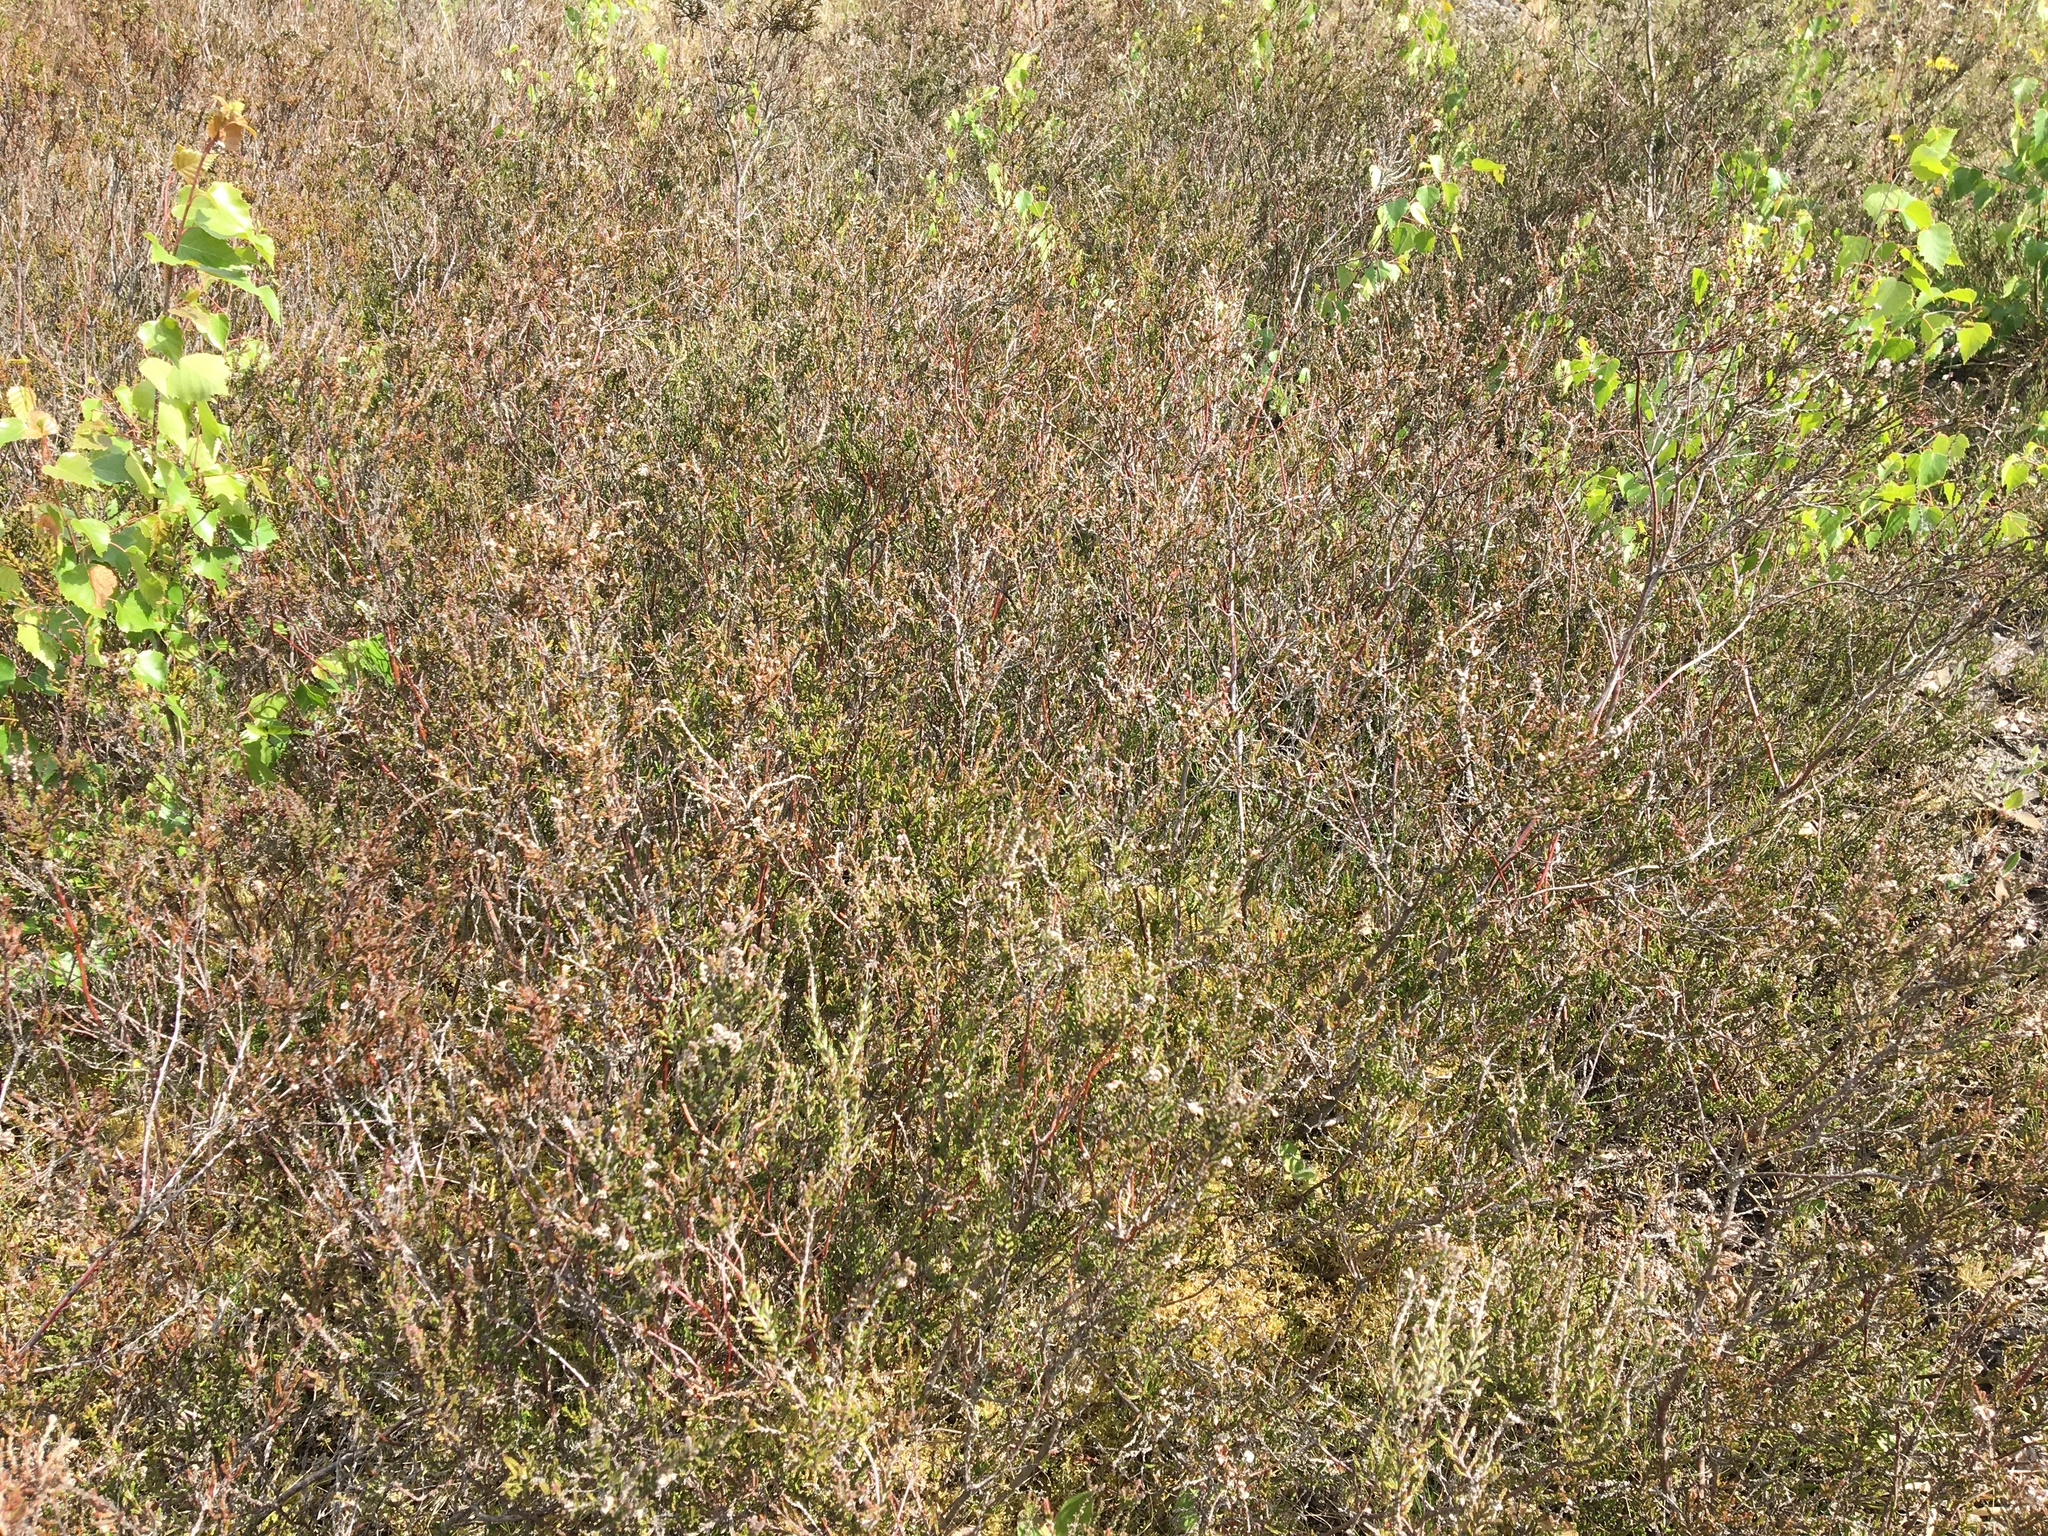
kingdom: Plantae
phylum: Tracheophyta
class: Magnoliopsida
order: Ericales
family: Ericaceae
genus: Calluna
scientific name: Calluna vulgaris
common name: Heather
